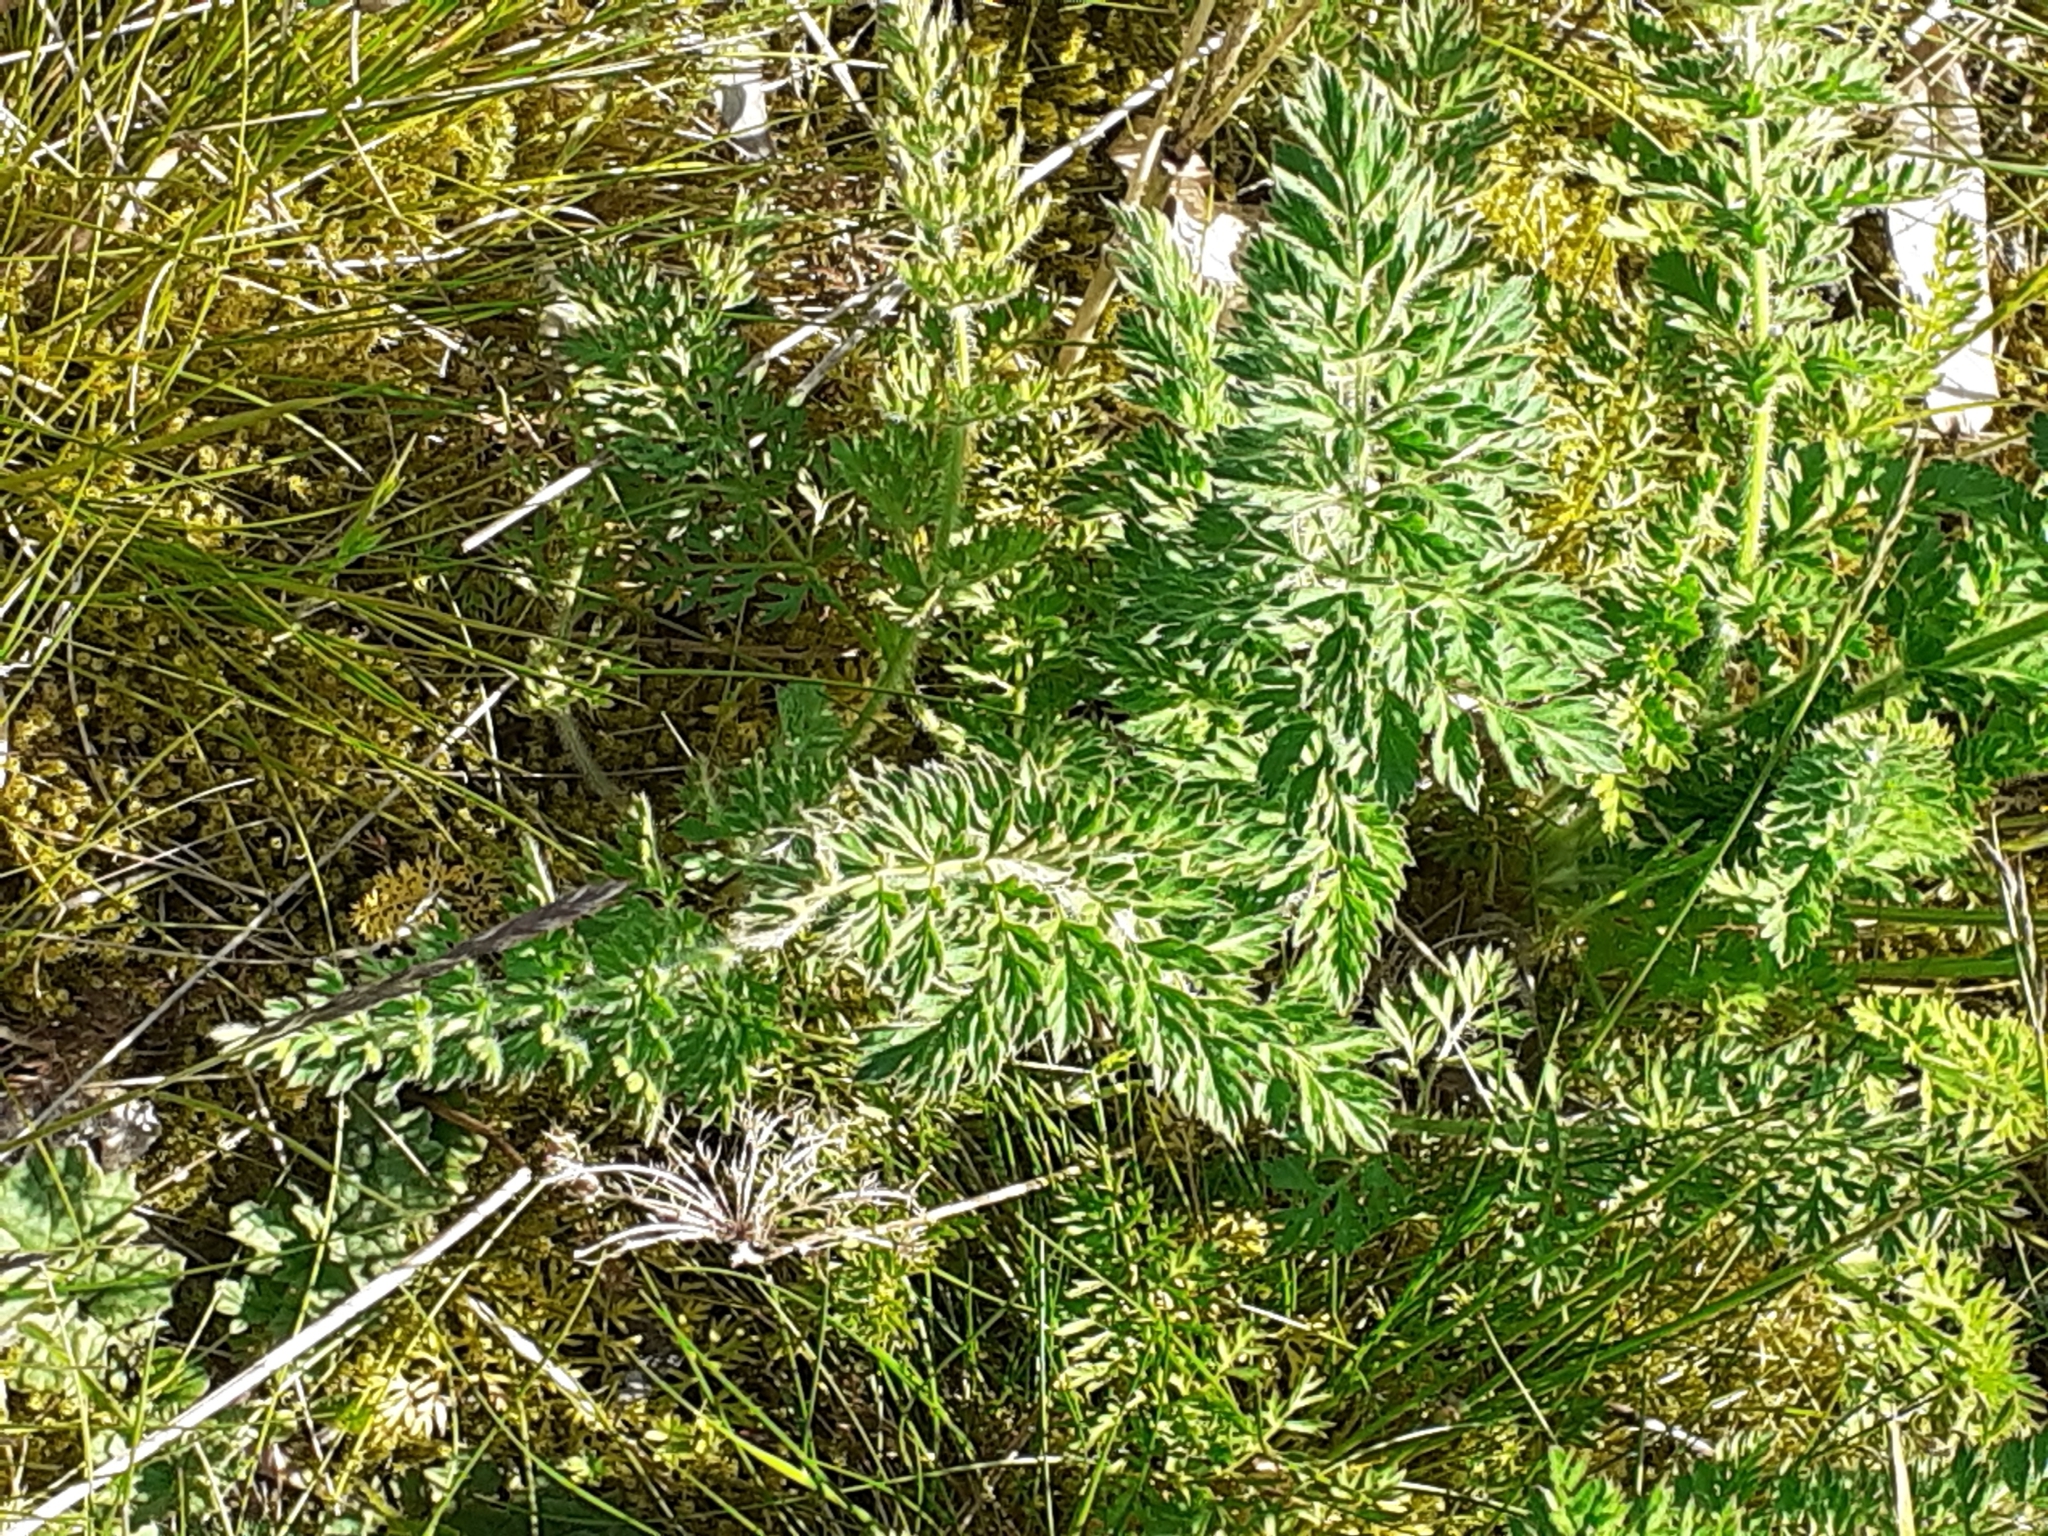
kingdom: Plantae
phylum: Tracheophyta
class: Magnoliopsida
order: Apiales
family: Apiaceae
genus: Daucus
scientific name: Daucus carota
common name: Wild carrot
